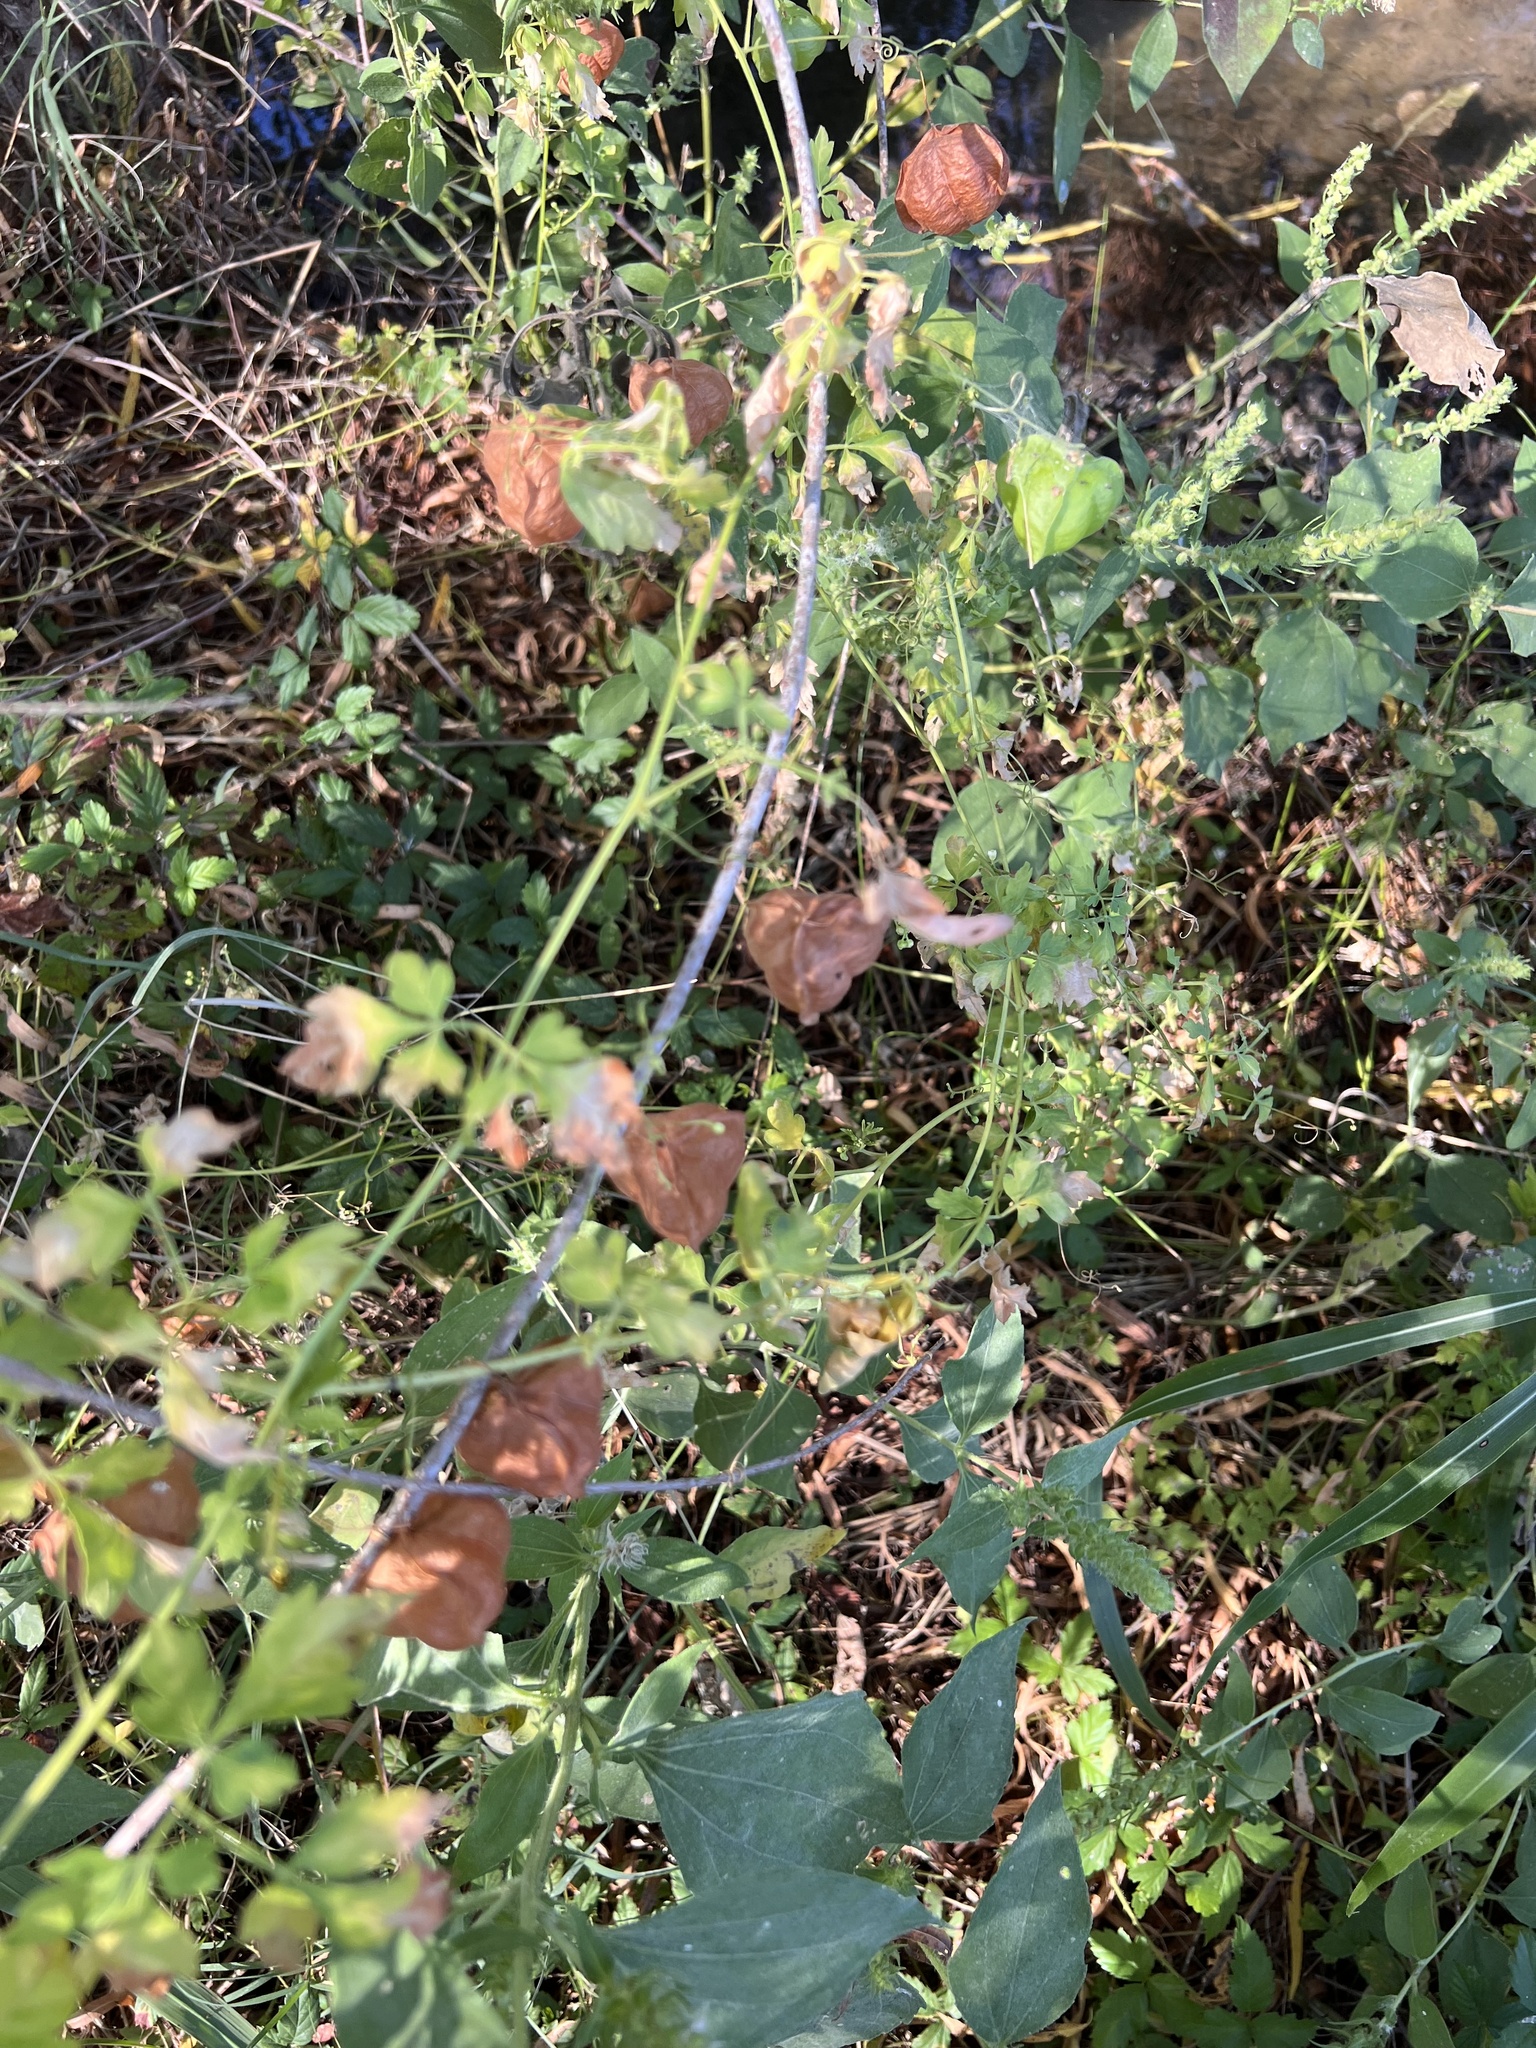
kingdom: Plantae
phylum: Tracheophyta
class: Magnoliopsida
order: Sapindales
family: Sapindaceae
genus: Cardiospermum
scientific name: Cardiospermum halicacabum
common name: Balloon vine
